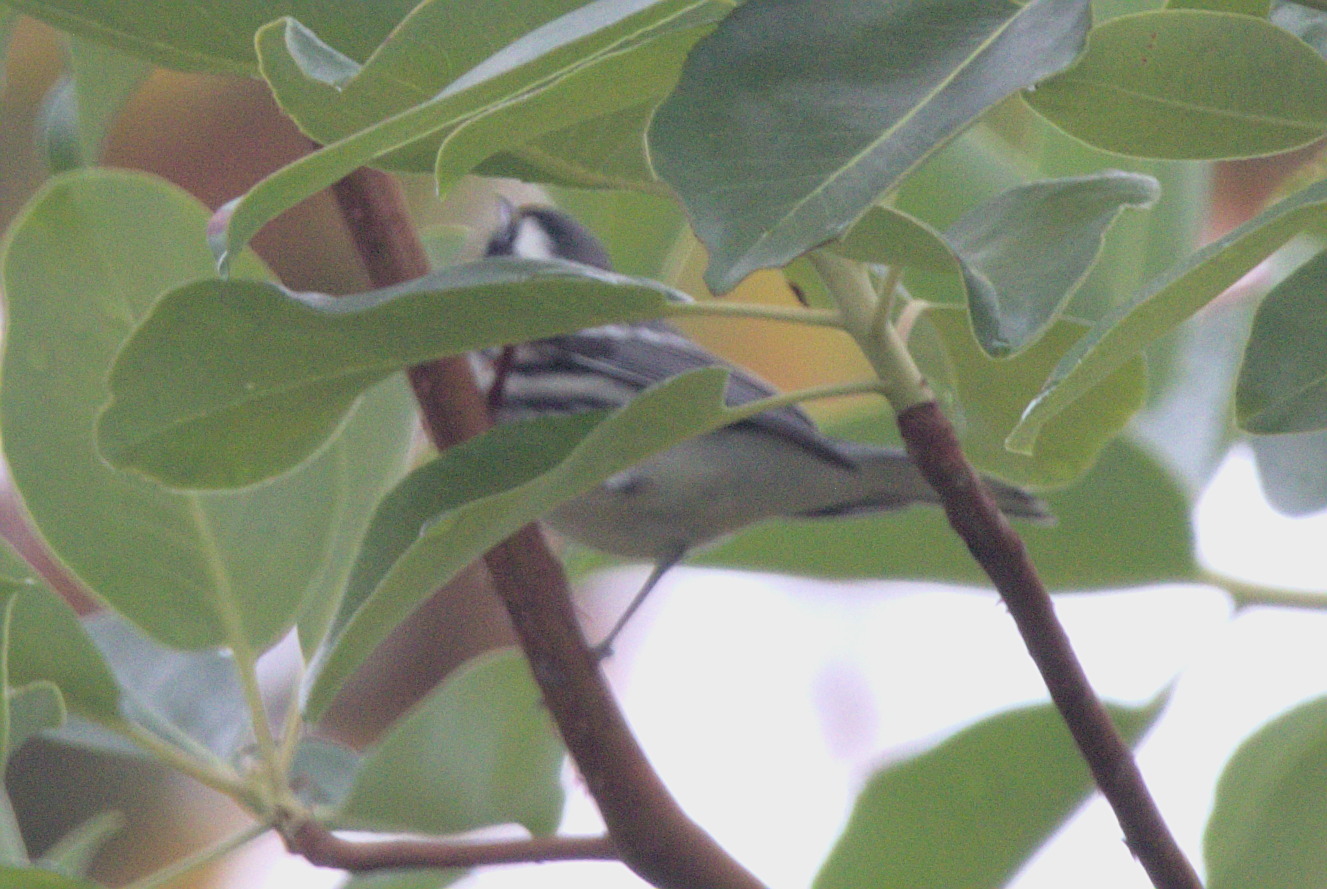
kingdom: Animalia
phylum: Chordata
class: Aves
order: Passeriformes
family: Parulidae
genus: Setophaga
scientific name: Setophaga nigrescens
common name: Black-throated gray warbler
